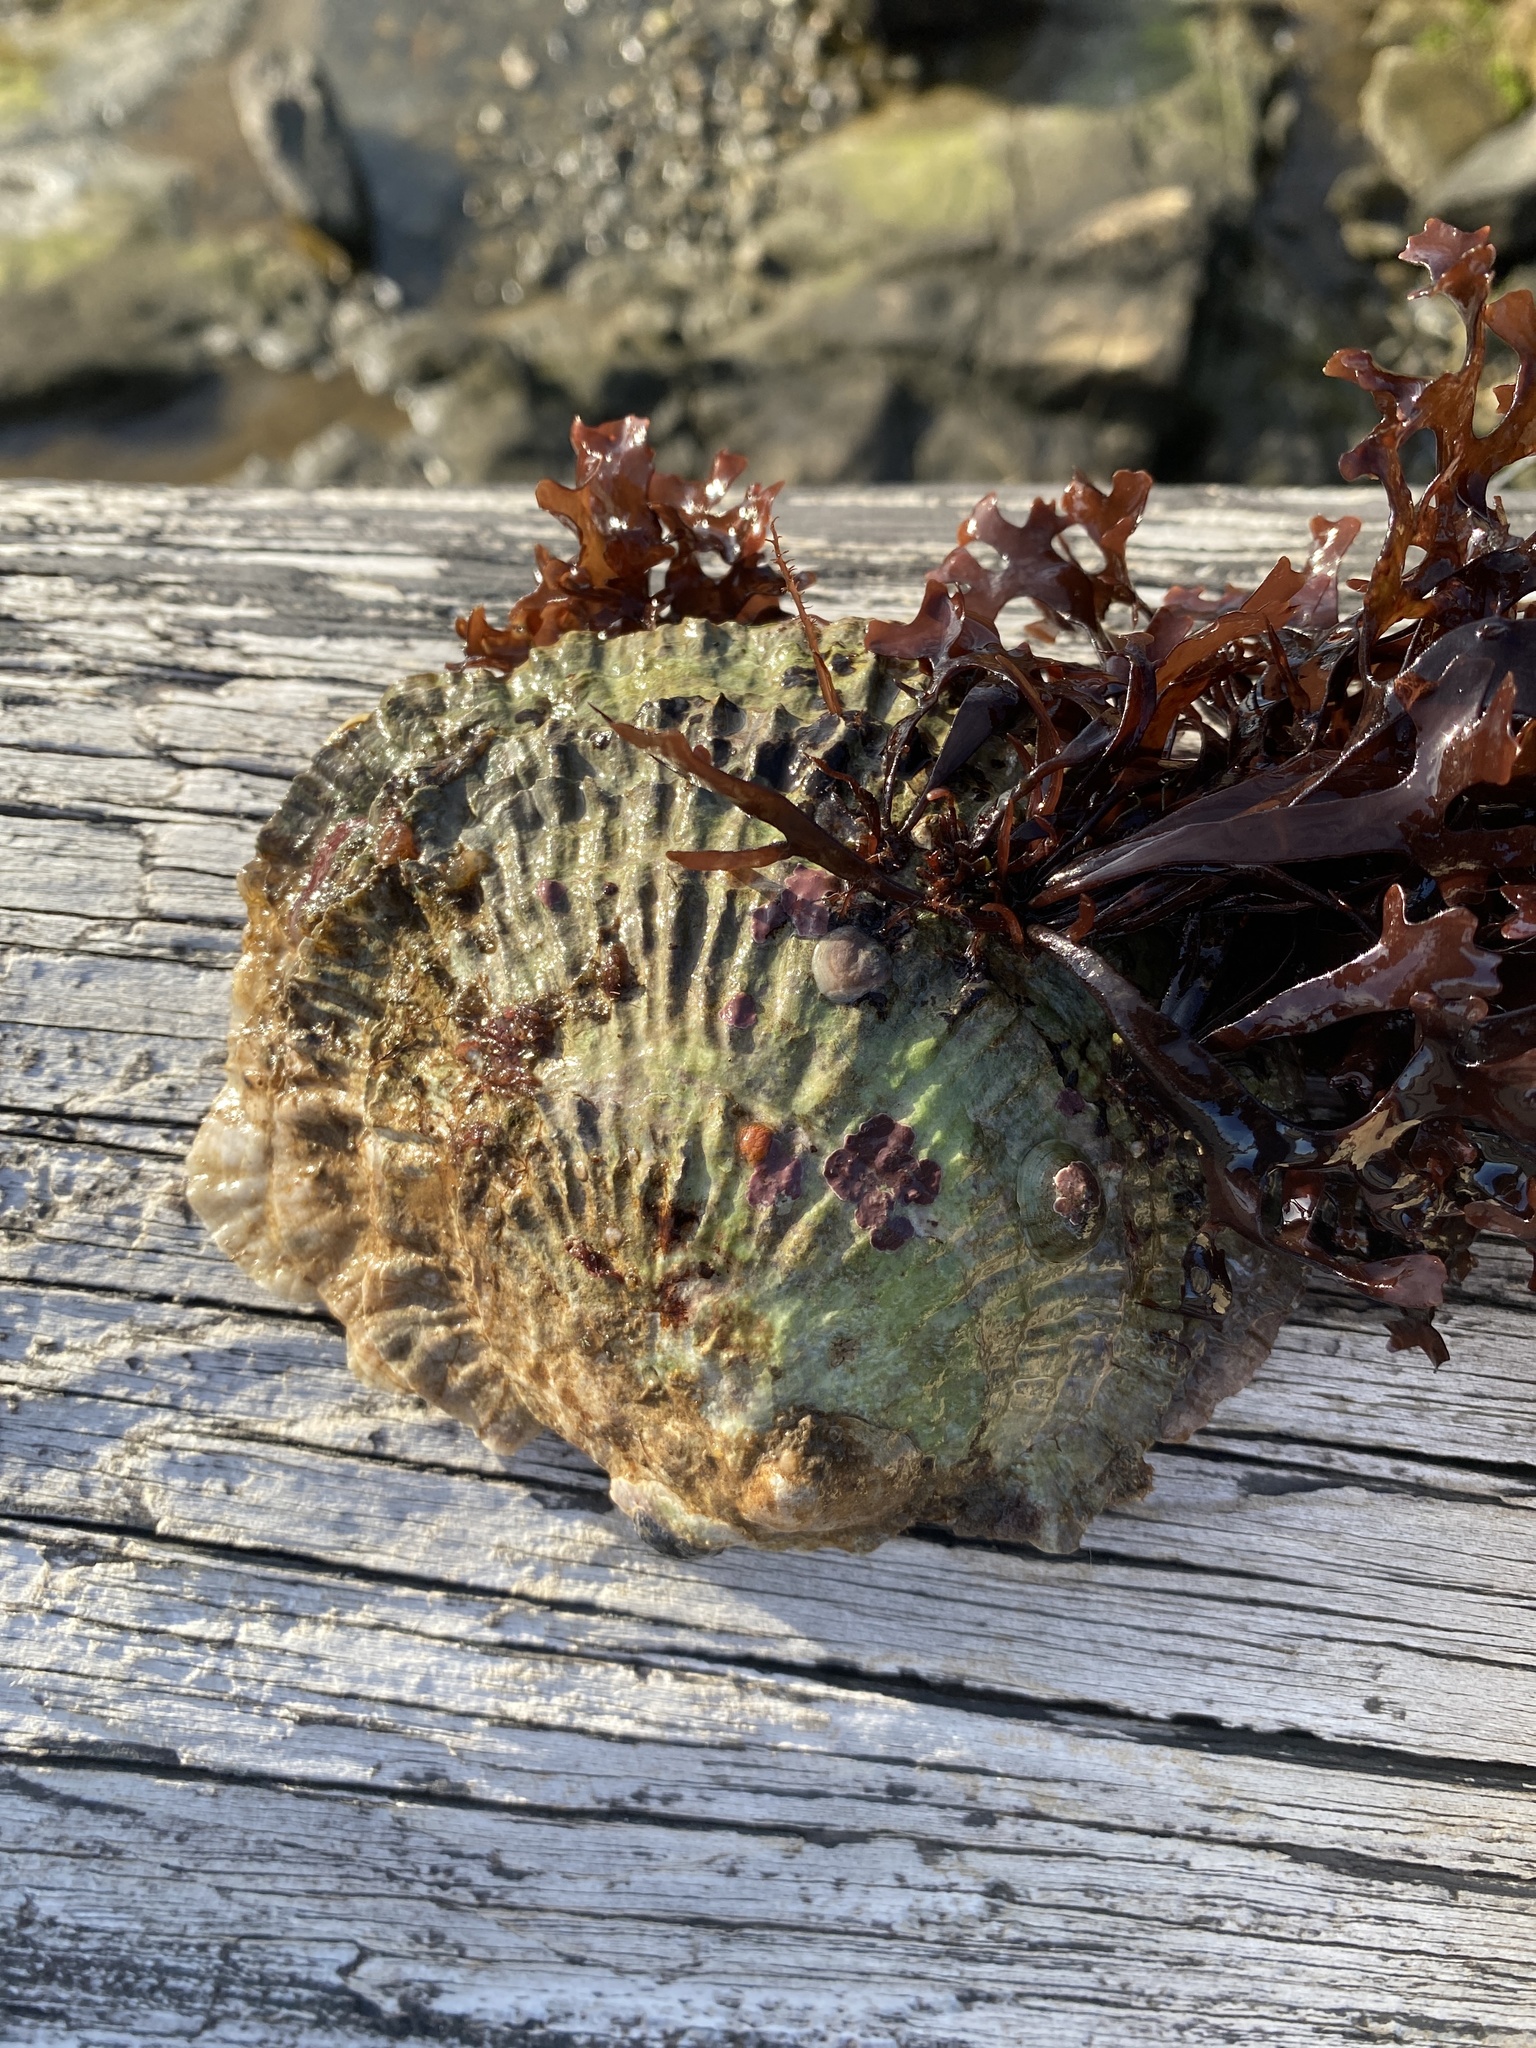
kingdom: Animalia
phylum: Mollusca
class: Bivalvia
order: Ostreida
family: Ostreidae
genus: Ostrea
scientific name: Ostrea edulis
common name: Flat oyster
